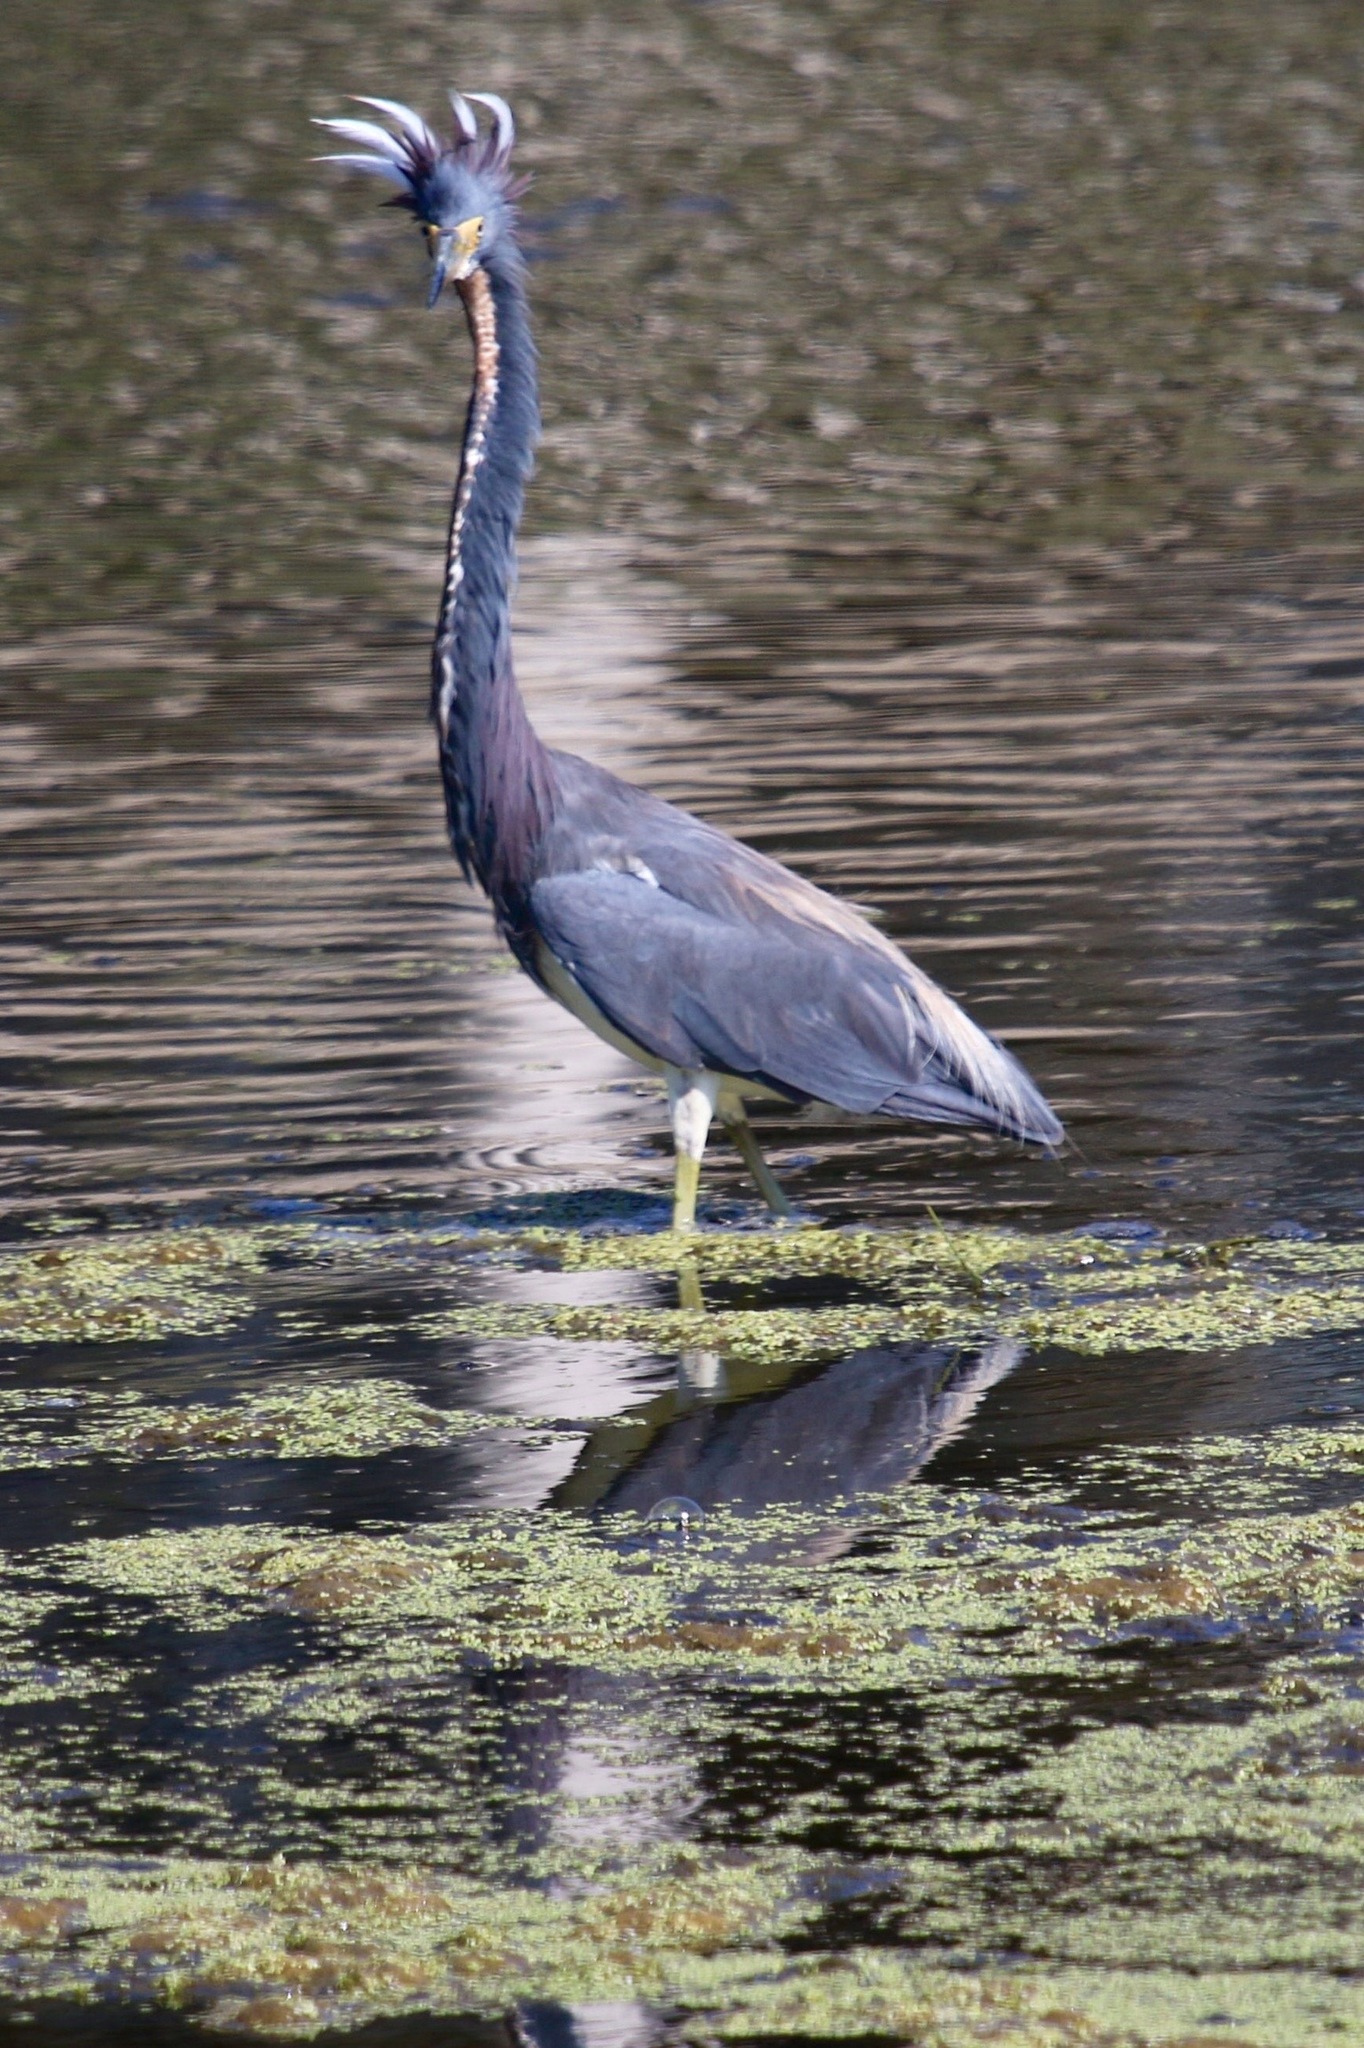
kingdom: Animalia
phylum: Chordata
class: Aves
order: Pelecaniformes
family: Ardeidae
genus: Egretta
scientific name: Egretta tricolor
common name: Tricolored heron
